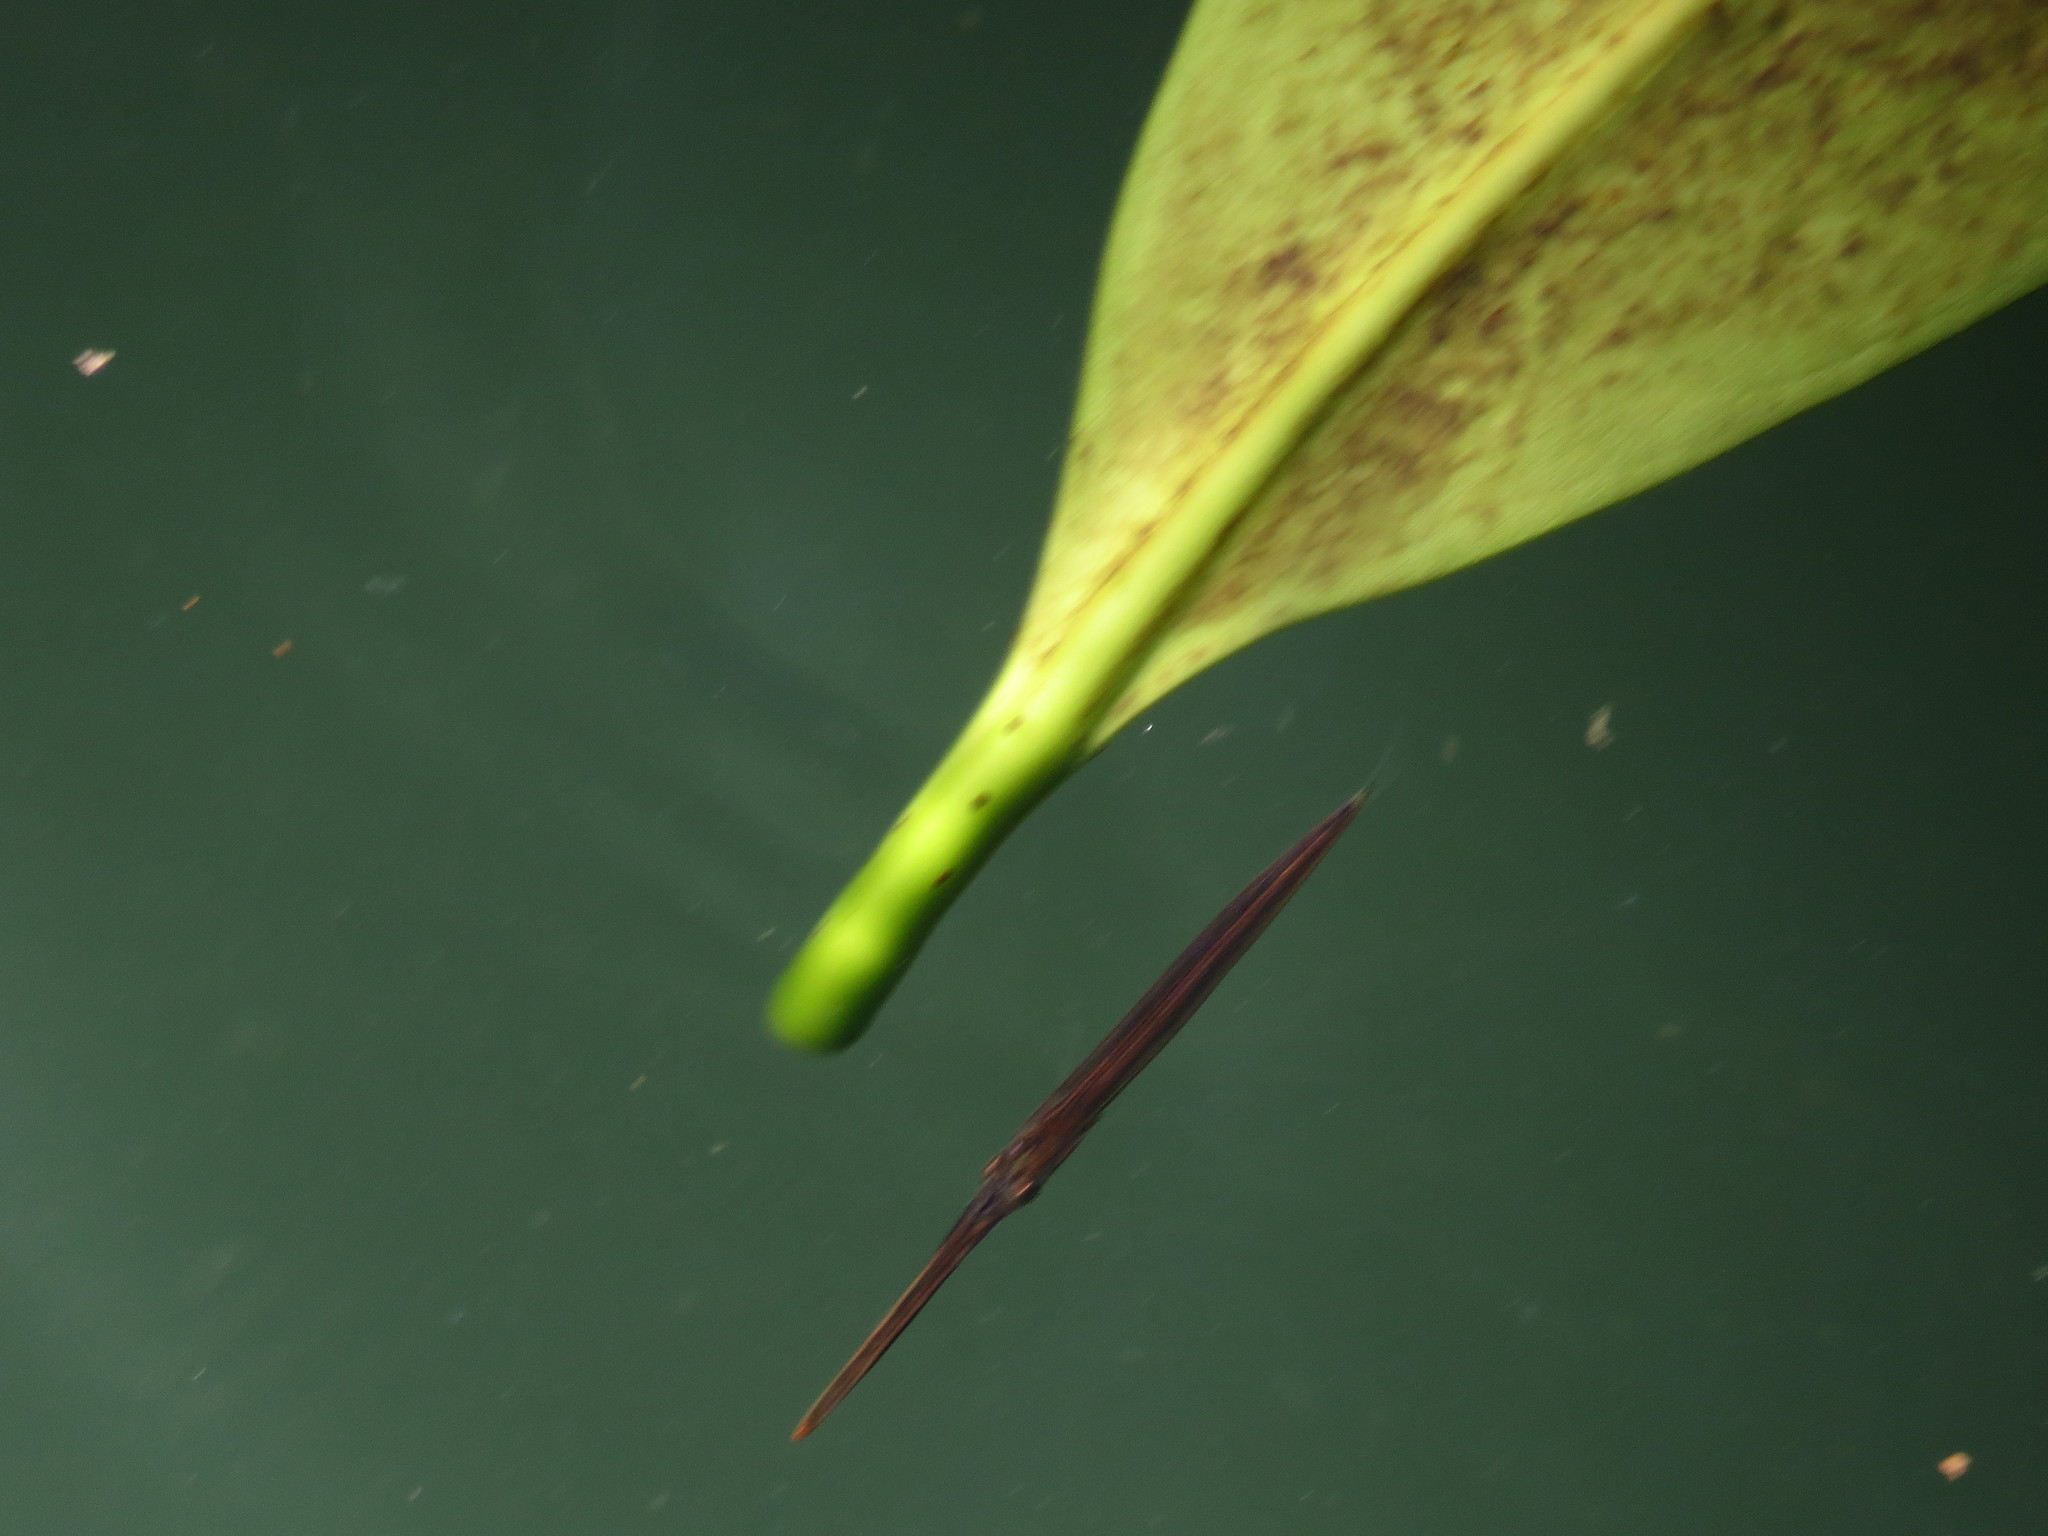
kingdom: Animalia
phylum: Chordata
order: Beloniformes
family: Hemiramphidae
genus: Rhynchorhamphus
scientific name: Rhynchorhamphus georgii
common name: Long billed half beak
